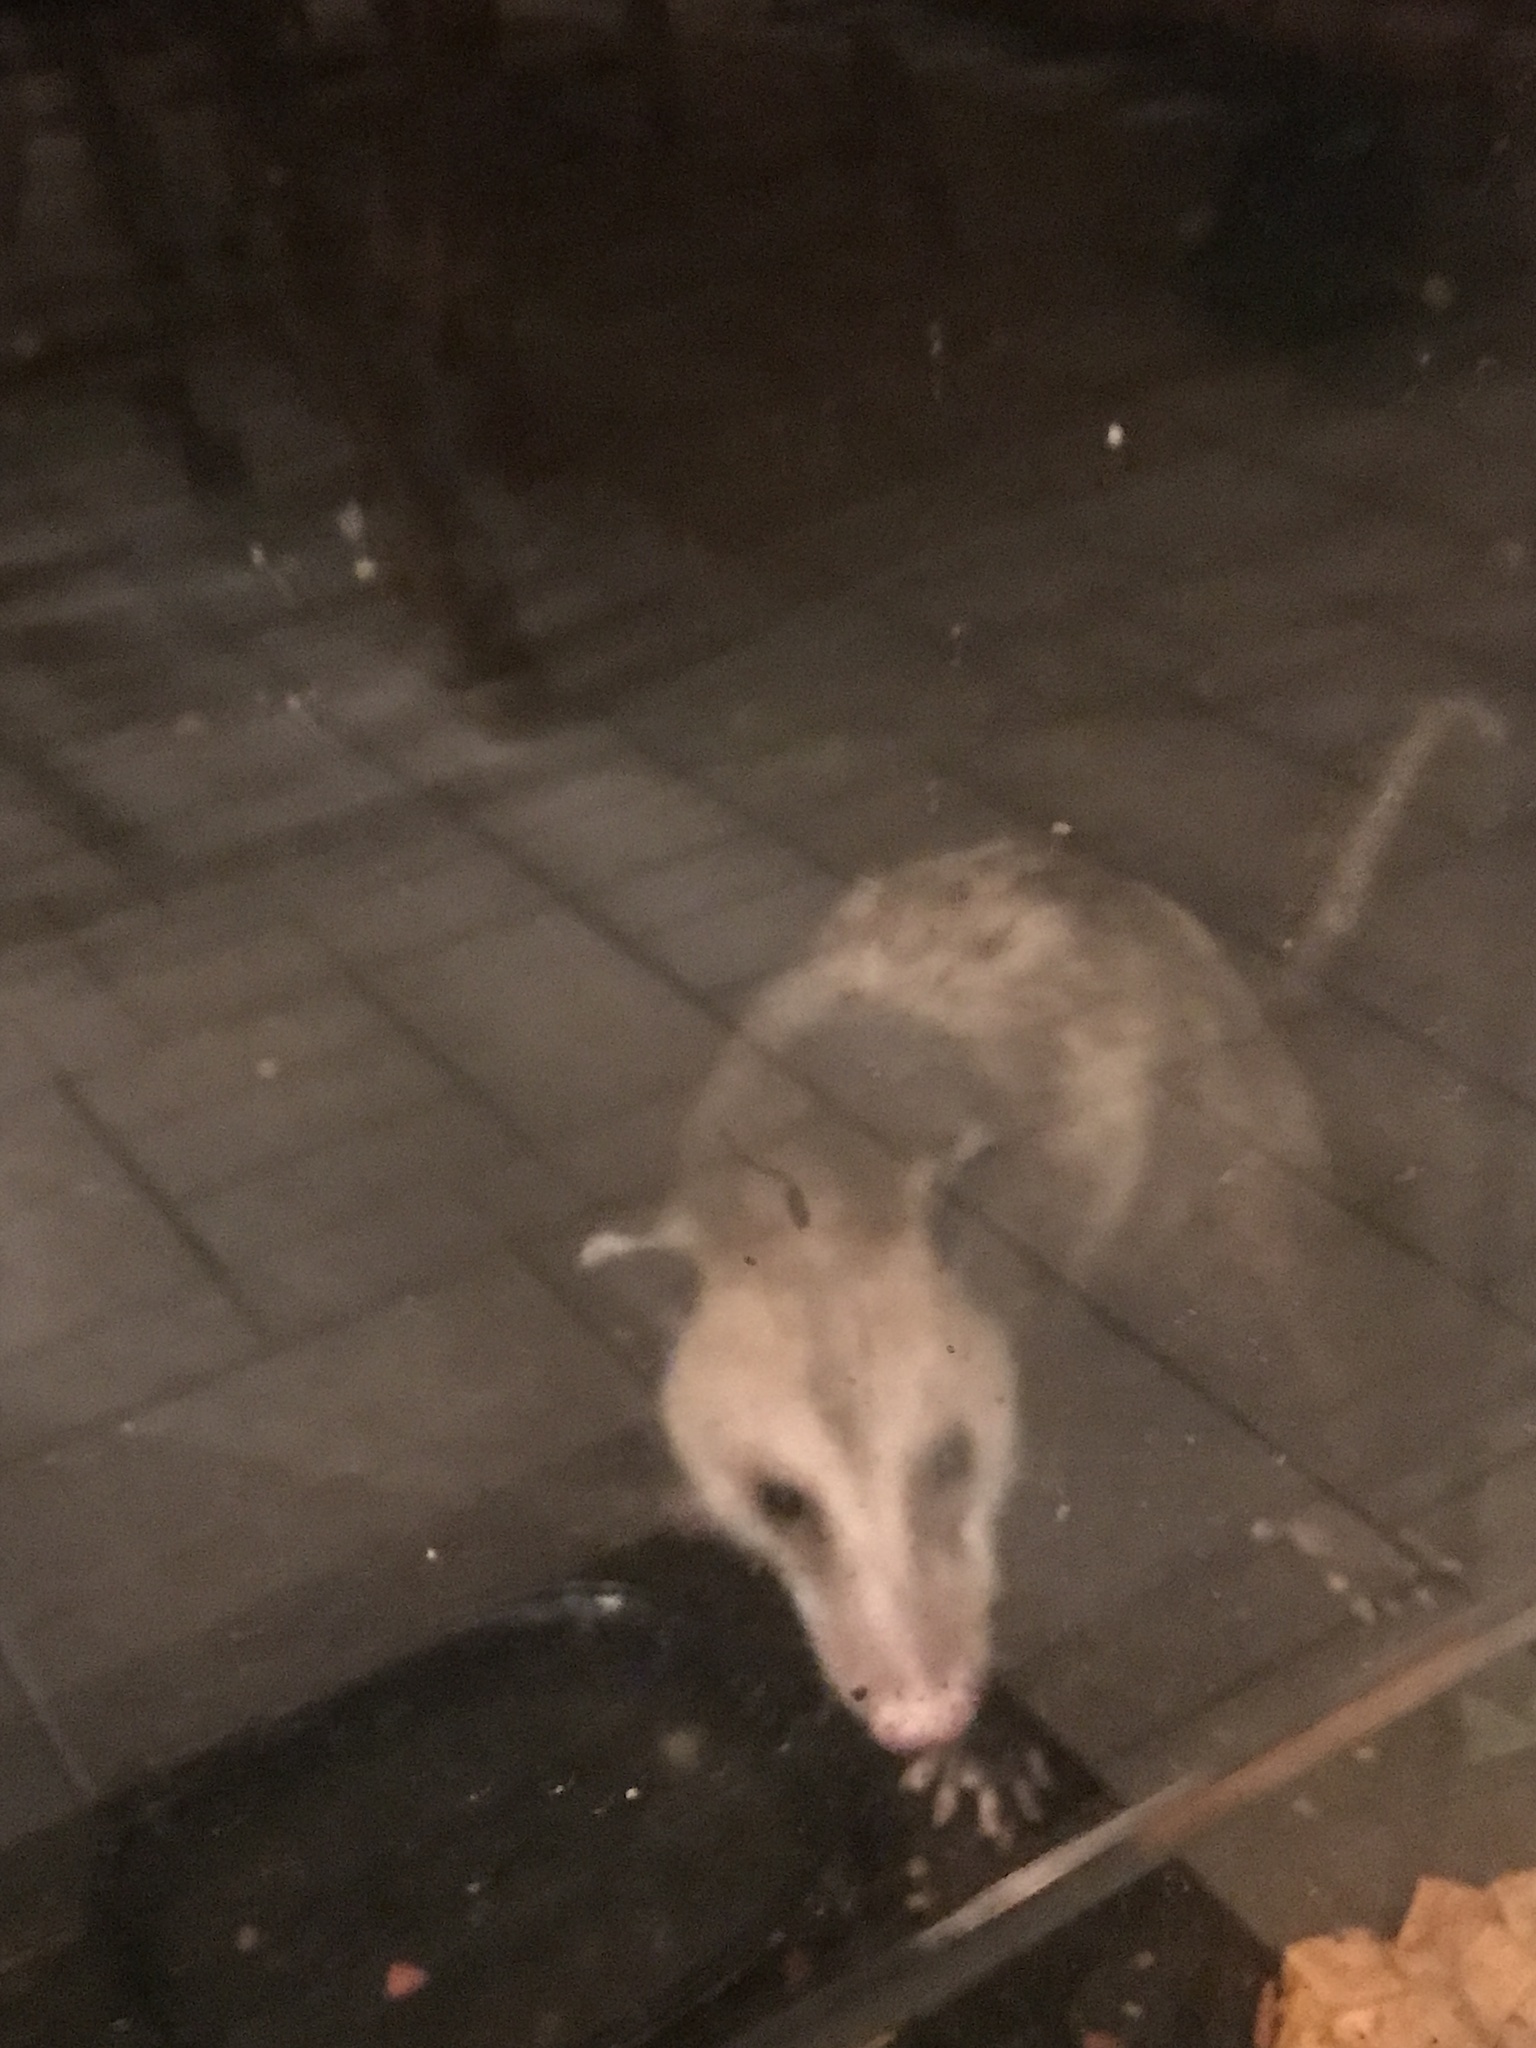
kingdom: Animalia
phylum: Chordata
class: Mammalia
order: Didelphimorphia
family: Didelphidae
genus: Didelphis
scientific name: Didelphis virginiana
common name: Virginia opossum
